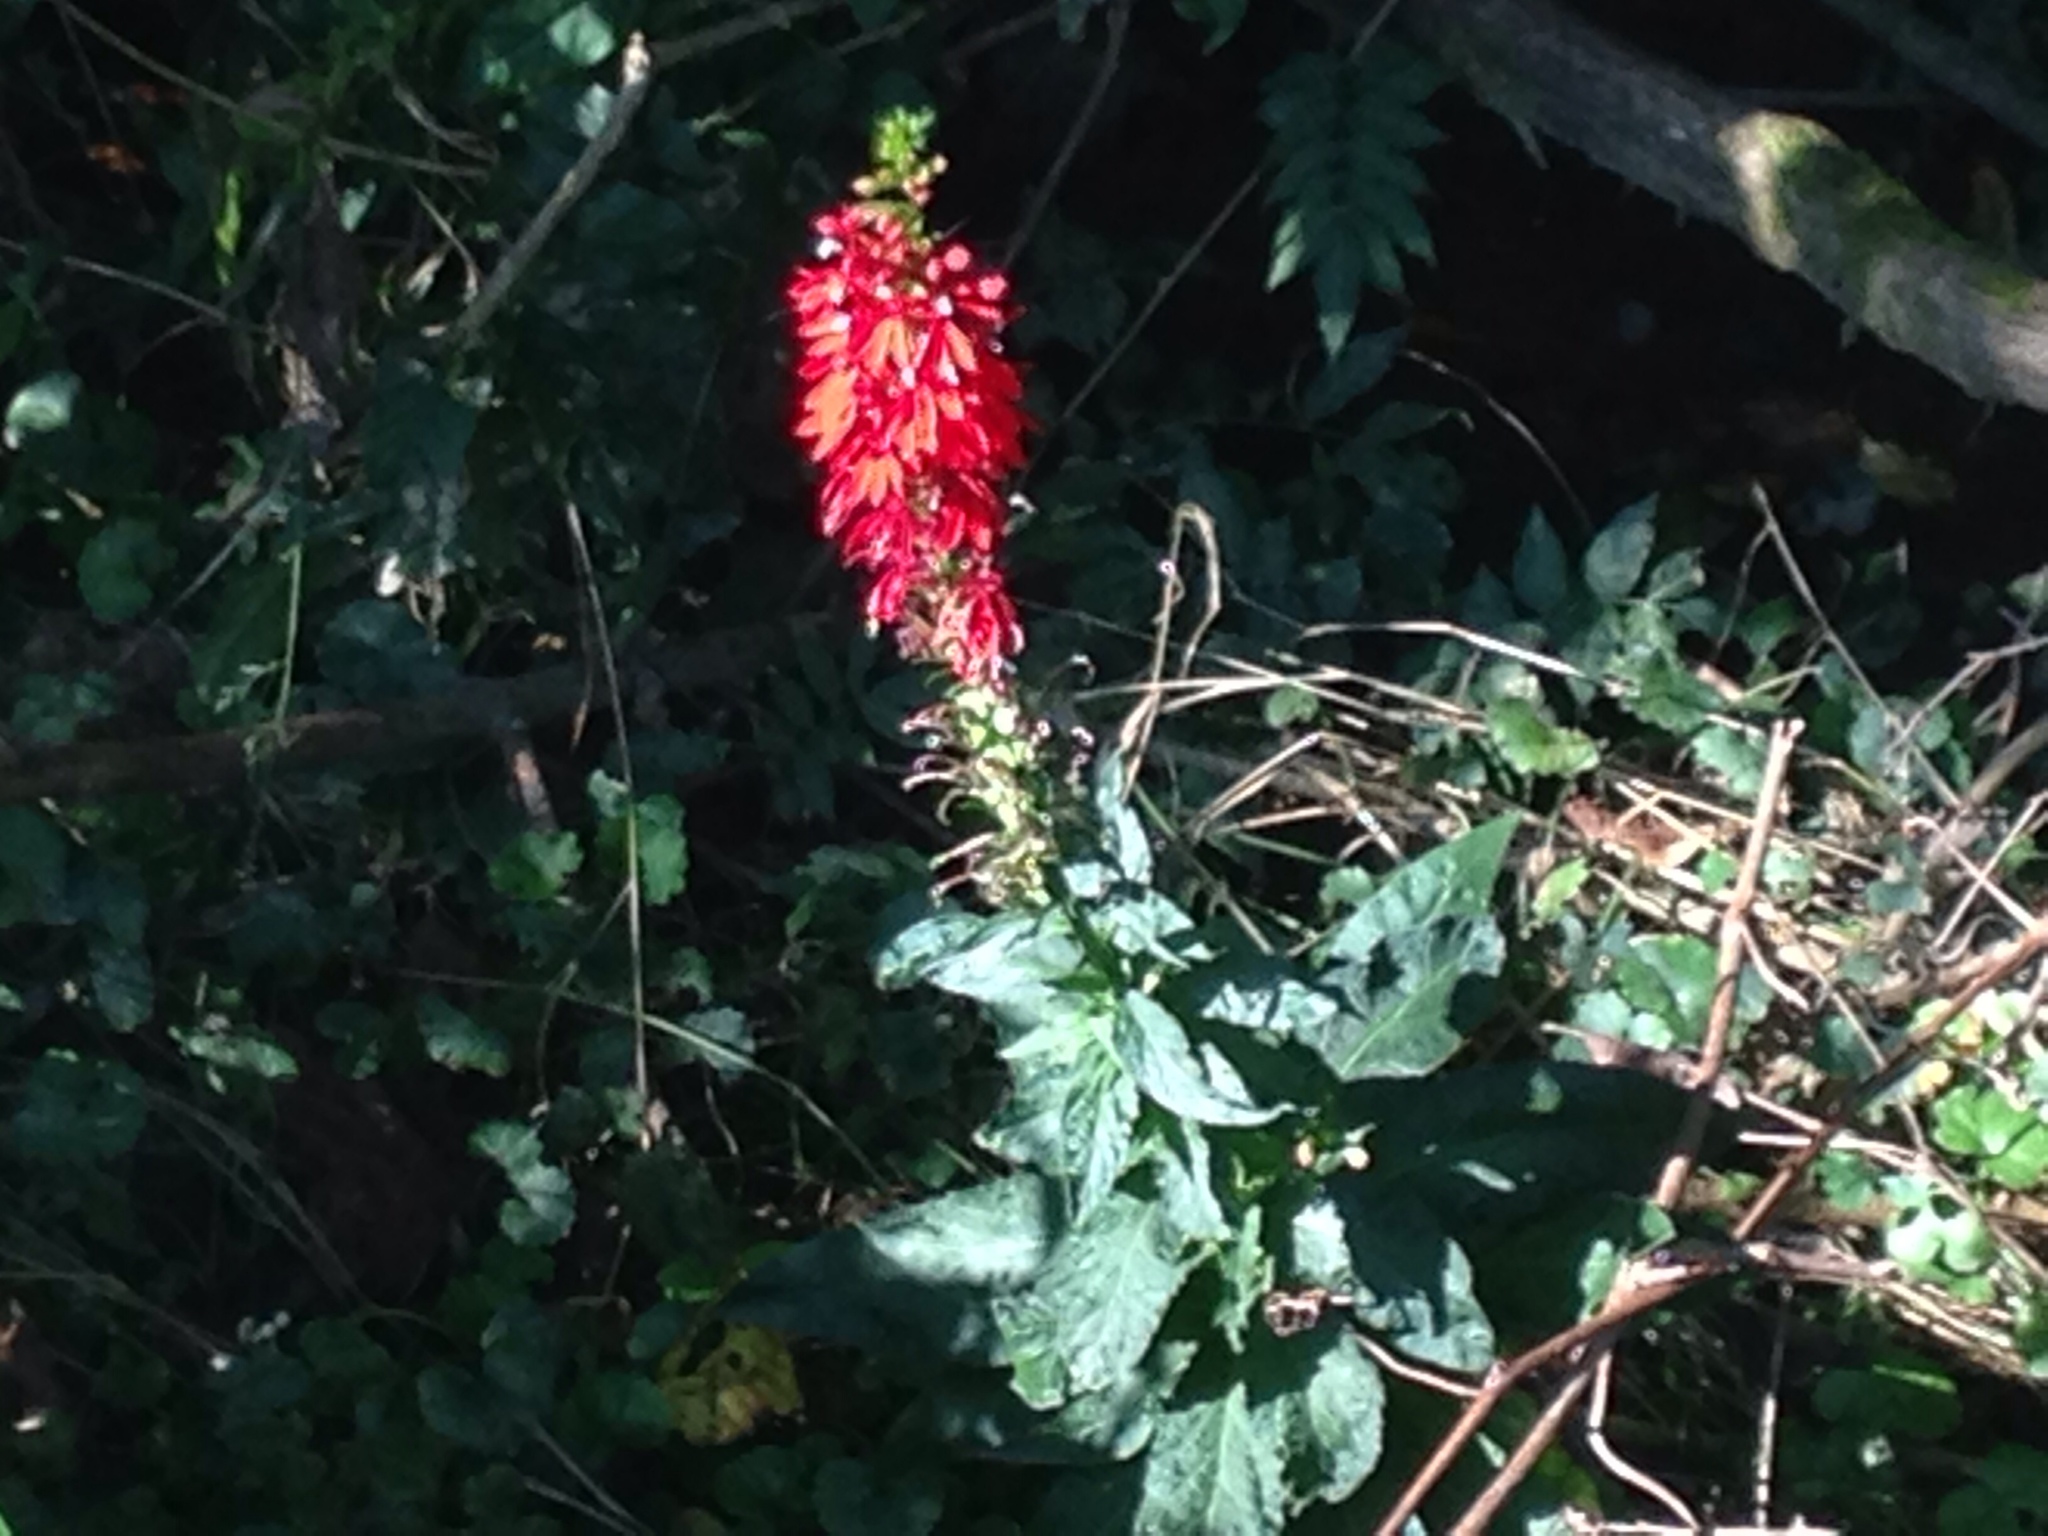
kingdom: Plantae
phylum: Tracheophyta
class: Magnoliopsida
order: Asterales
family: Campanulaceae
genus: Lobelia
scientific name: Lobelia cardinalis
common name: Cardinal flower
